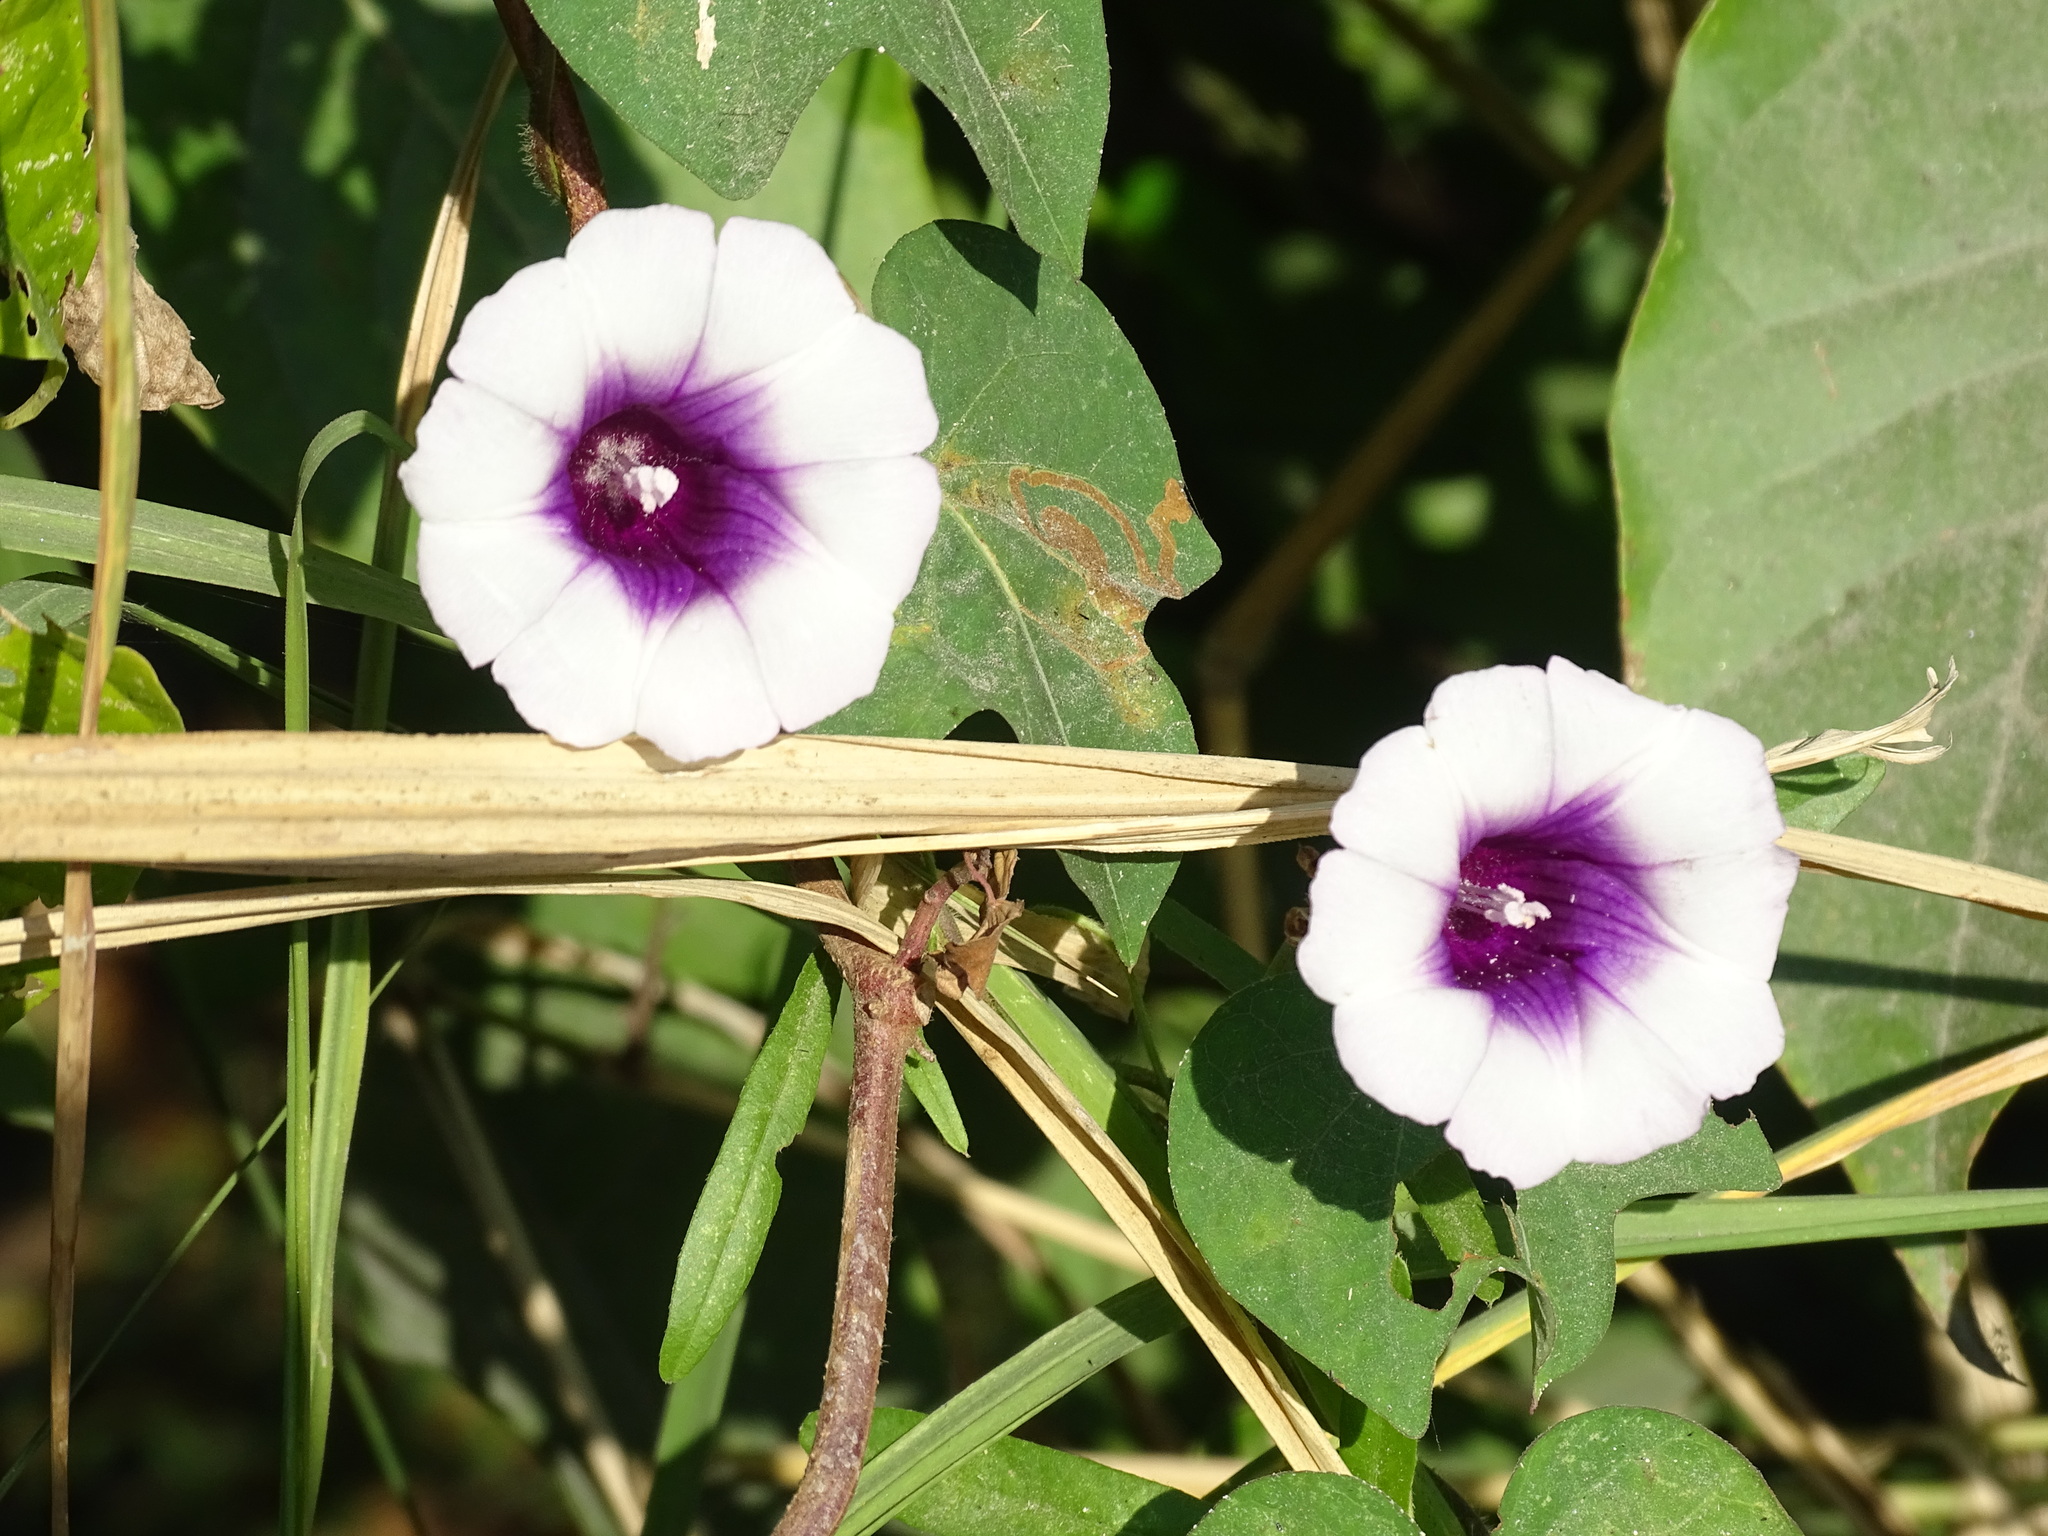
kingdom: Plantae
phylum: Tracheophyta
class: Magnoliopsida
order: Solanales
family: Convolvulaceae
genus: Ipomoea
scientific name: Ipomoea batatas
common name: Sweet-potato
